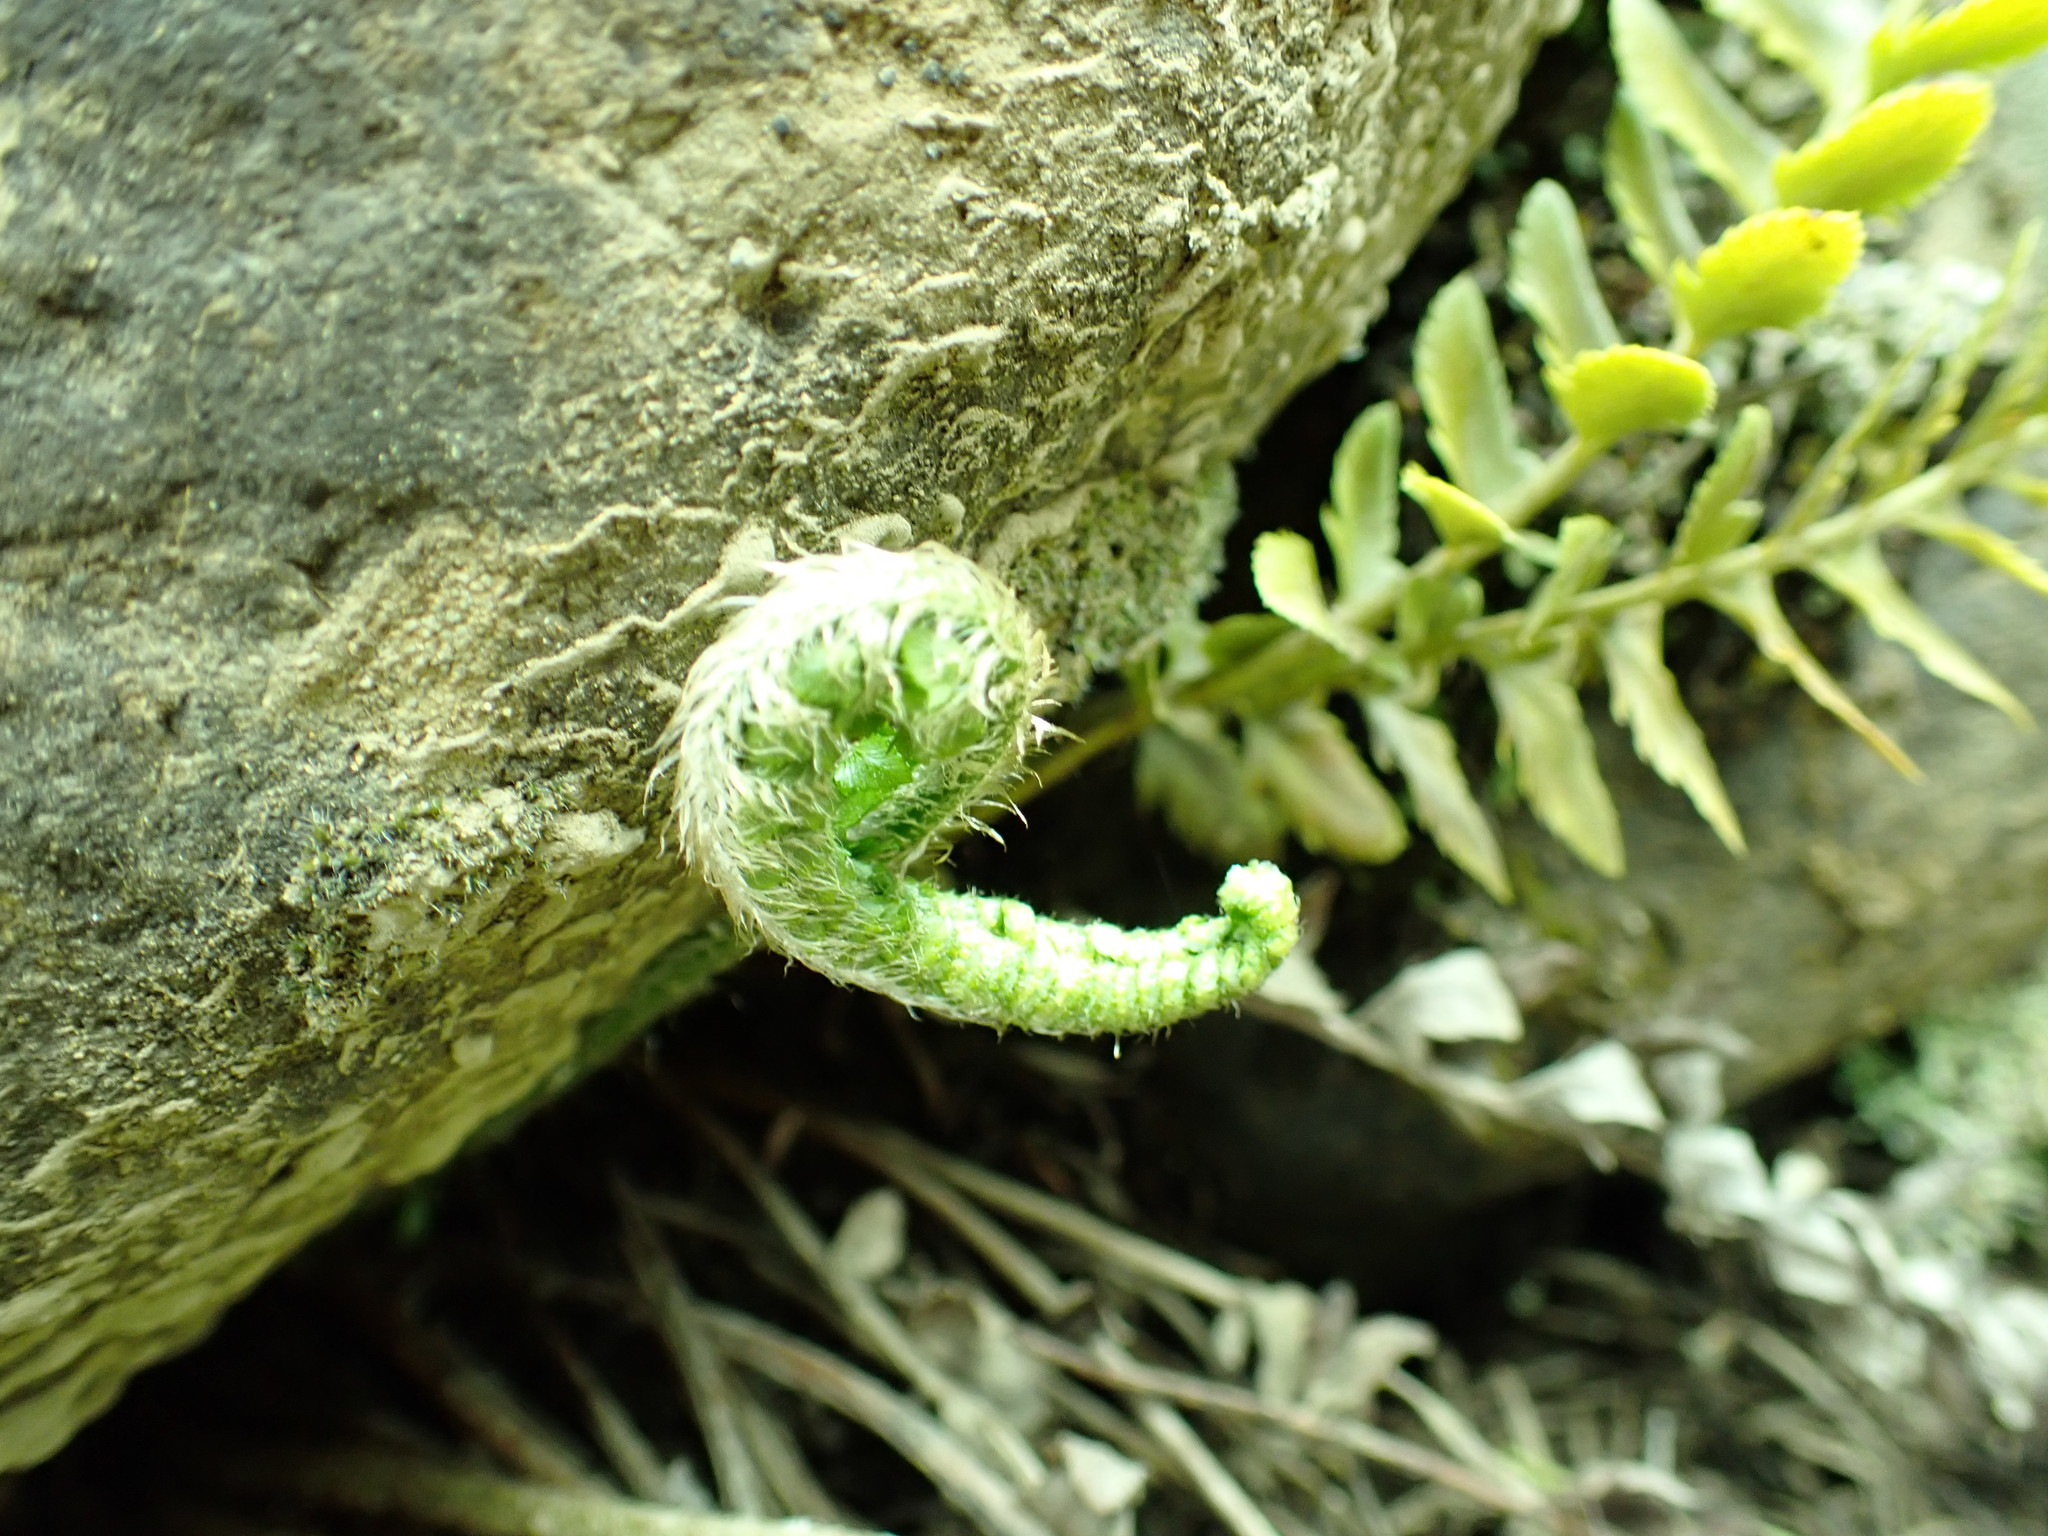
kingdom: Plantae
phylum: Tracheophyta
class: Polypodiopsida
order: Polypodiales
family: Dryopteridaceae
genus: Polystichum
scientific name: Polystichum scopulinum
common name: Eaton's shield fern
